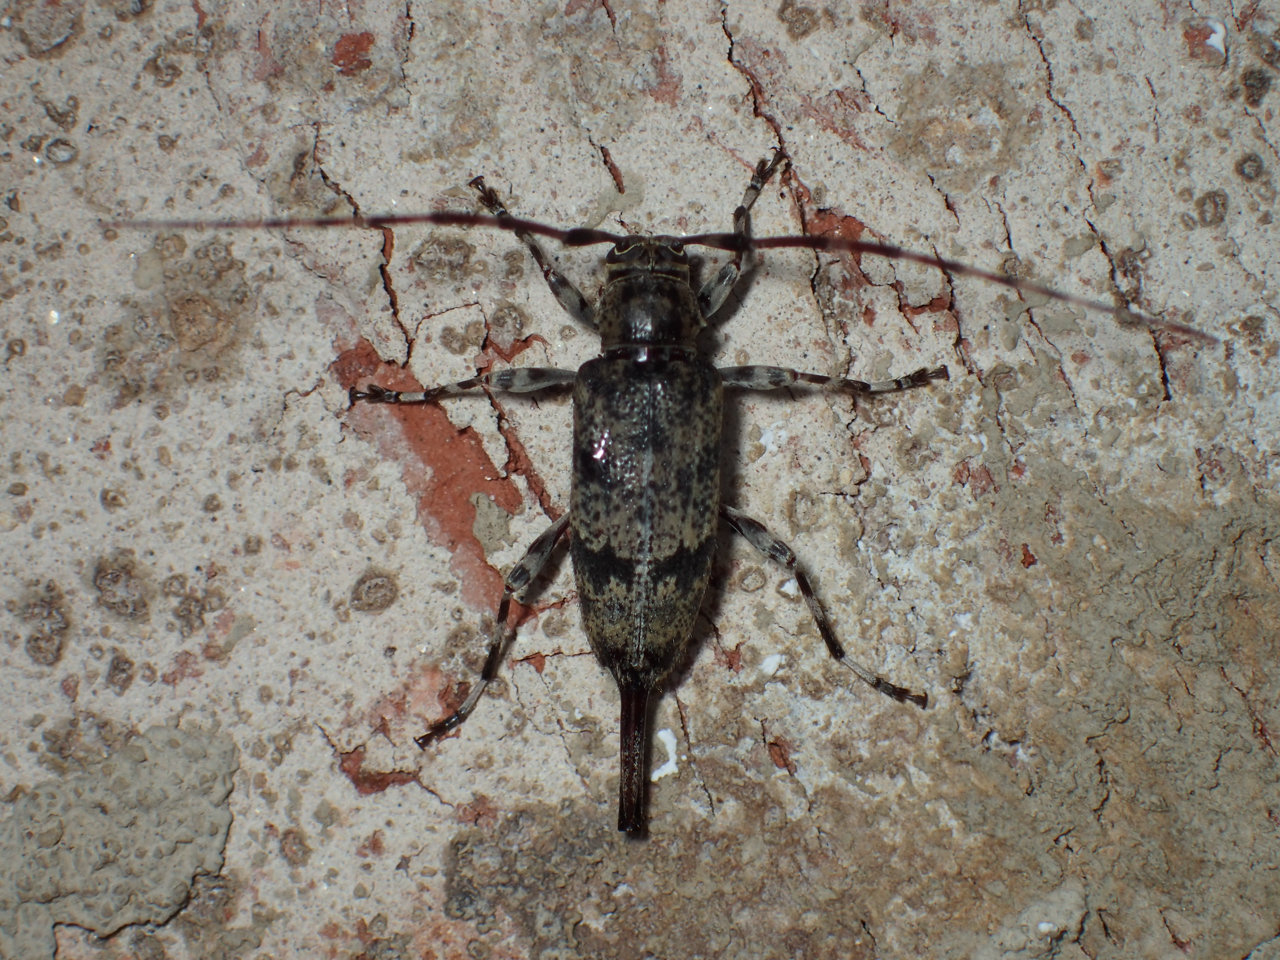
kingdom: Animalia
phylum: Arthropoda
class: Insecta
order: Coleoptera
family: Cerambycidae
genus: Graphisurus
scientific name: Graphisurus fasciatus
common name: Banded graphisurus
